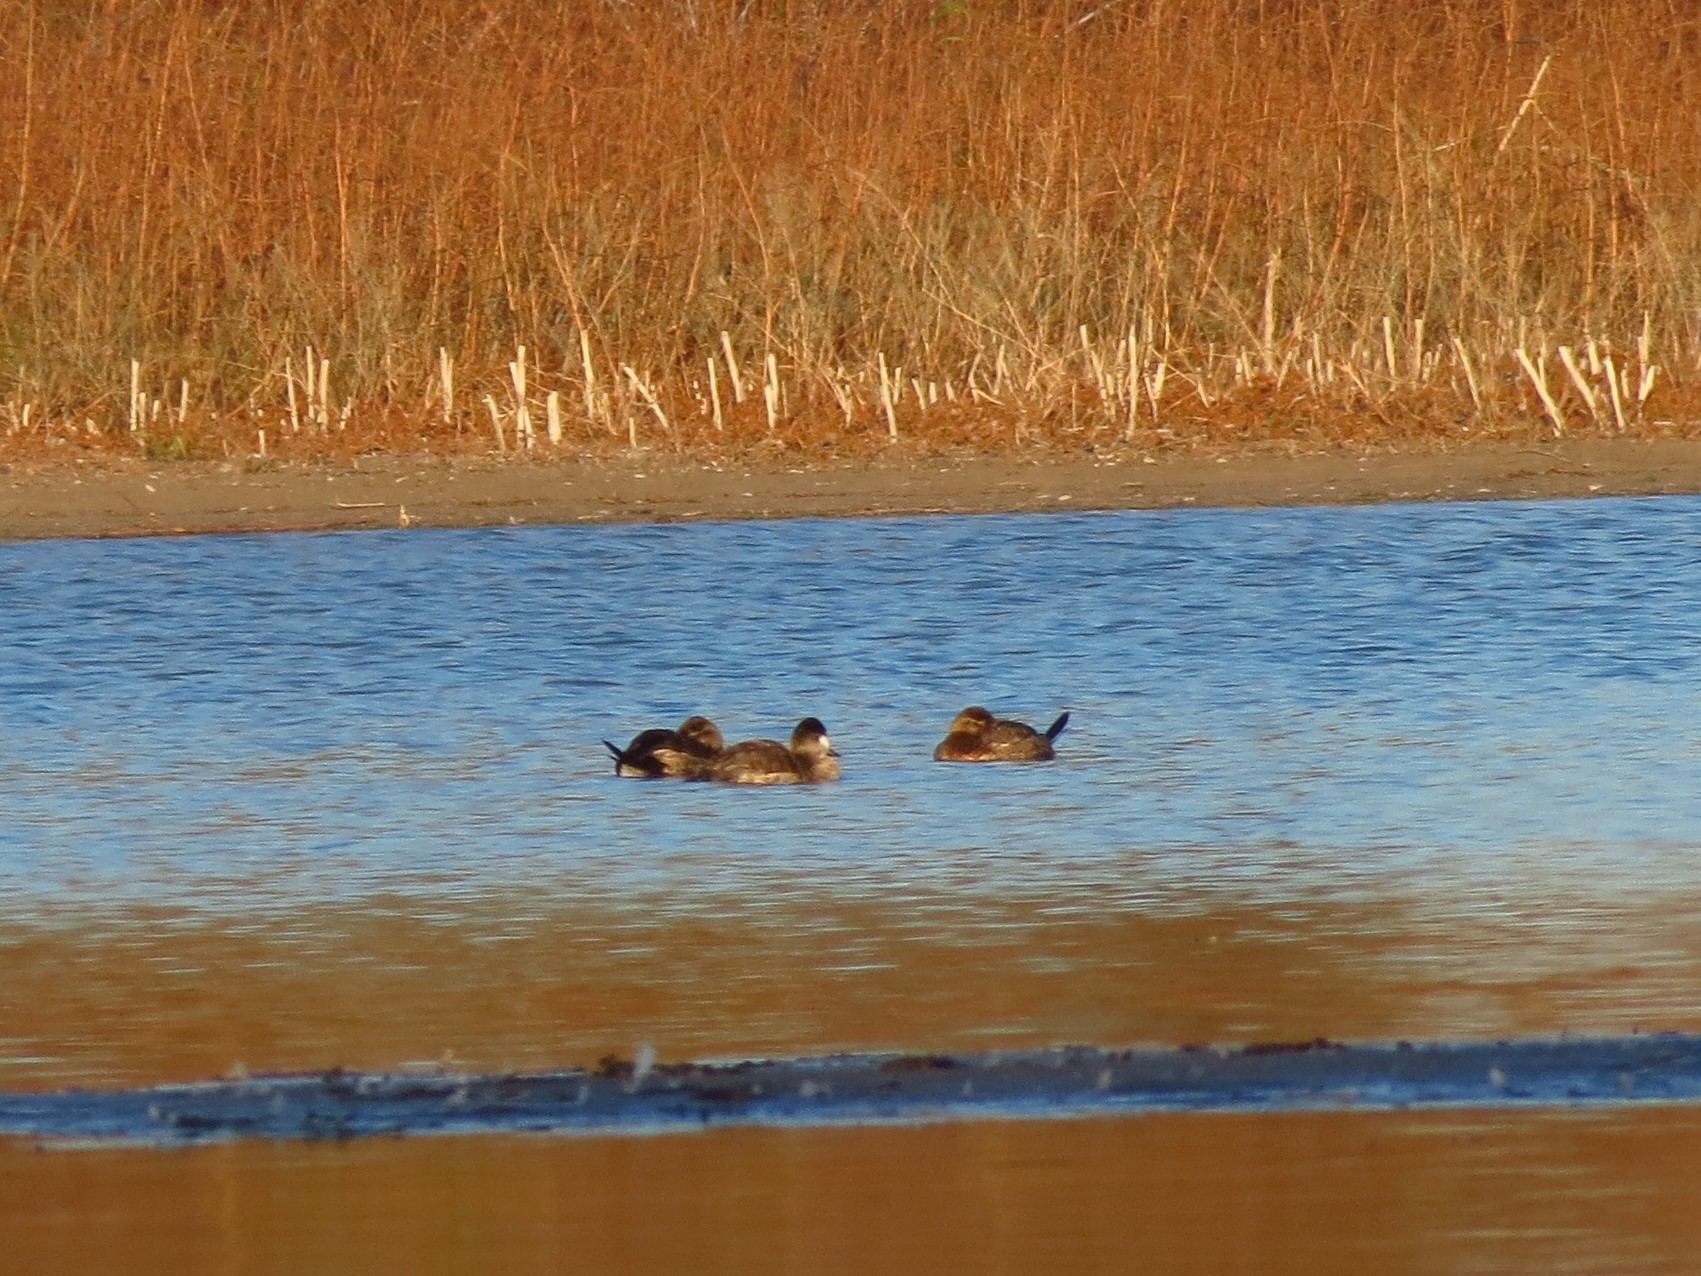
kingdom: Animalia
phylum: Chordata
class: Aves
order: Anseriformes
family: Anatidae
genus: Oxyura
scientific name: Oxyura jamaicensis
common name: Ruddy duck
